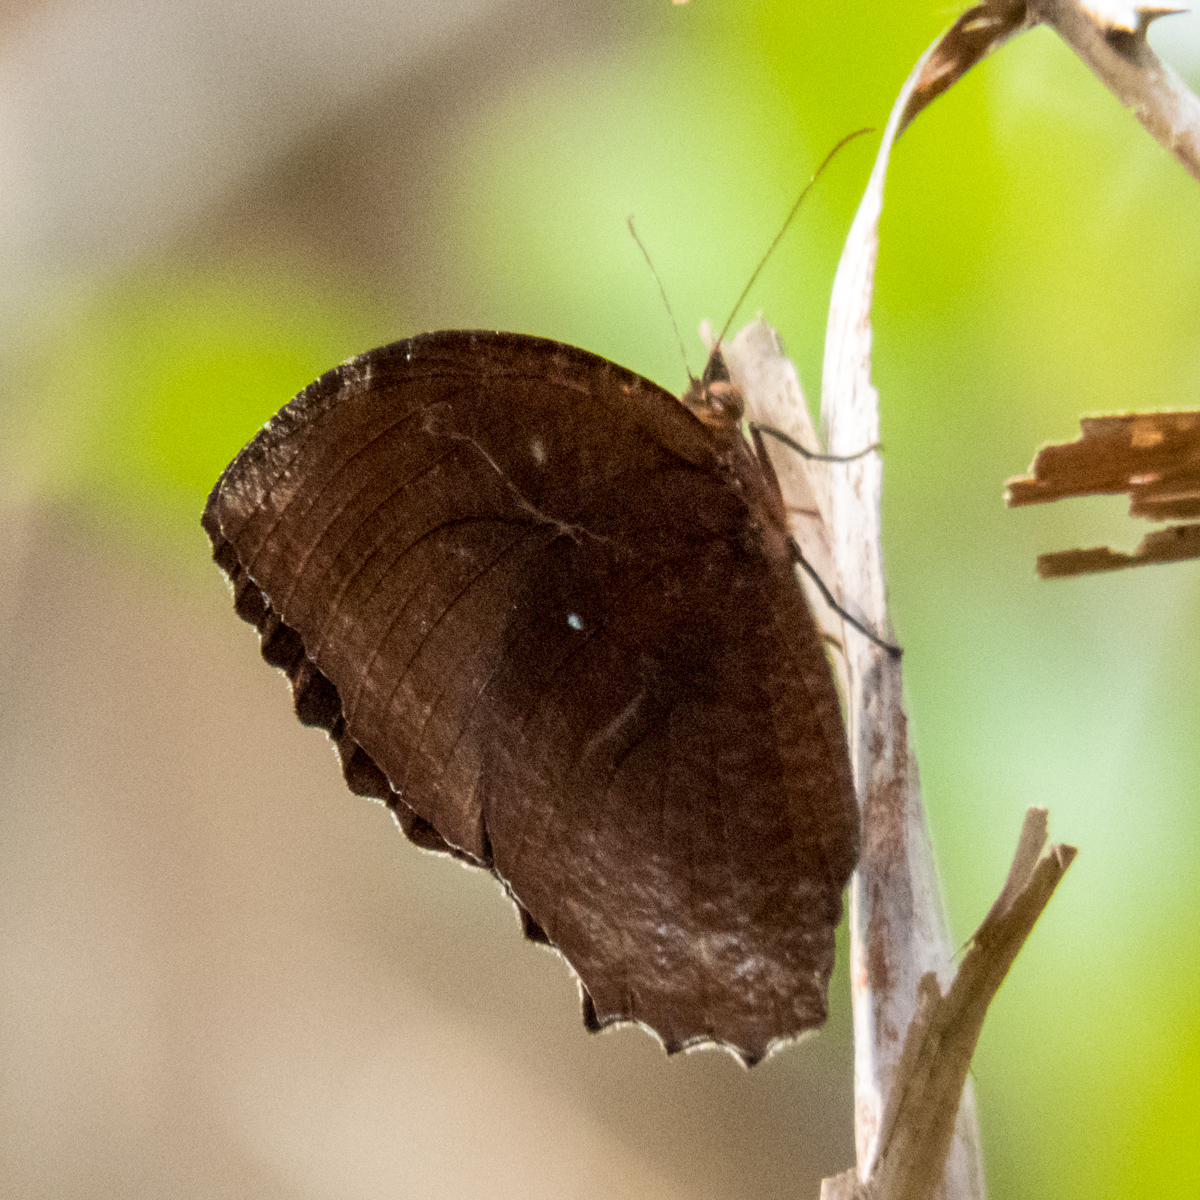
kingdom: Animalia
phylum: Arthropoda
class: Insecta
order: Lepidoptera
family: Nymphalidae
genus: Elymnias
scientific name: Elymnias hypermnestra
